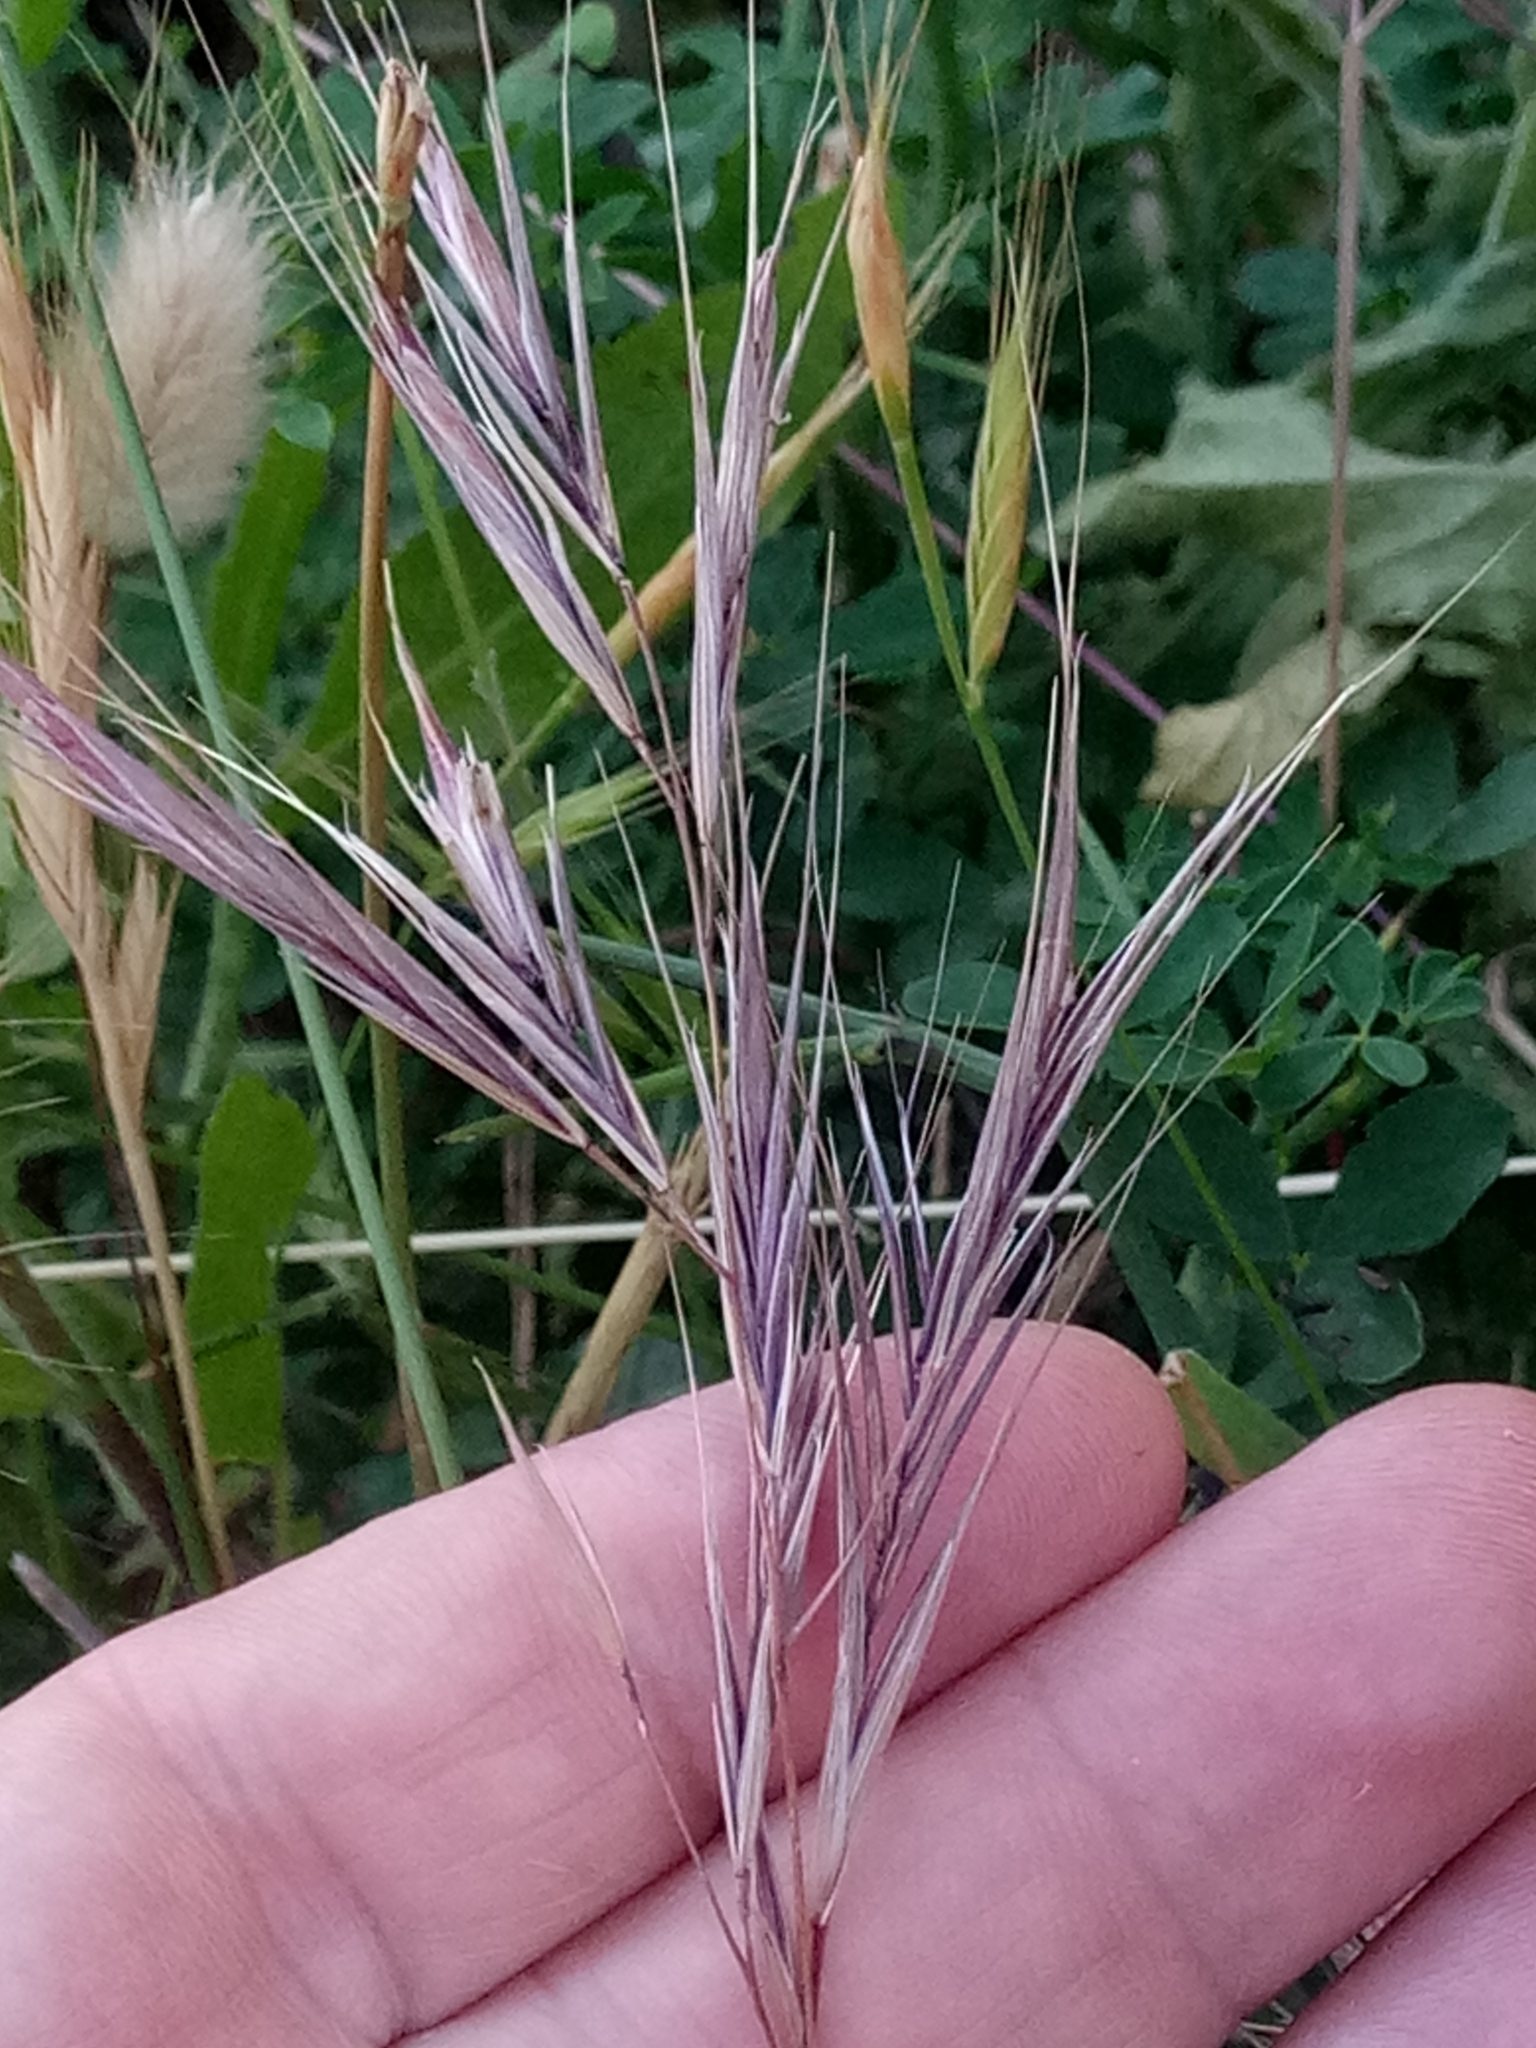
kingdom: Plantae
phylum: Tracheophyta
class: Liliopsida
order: Poales
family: Poaceae
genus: Bromus
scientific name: Bromus madritensis
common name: Compact brome
